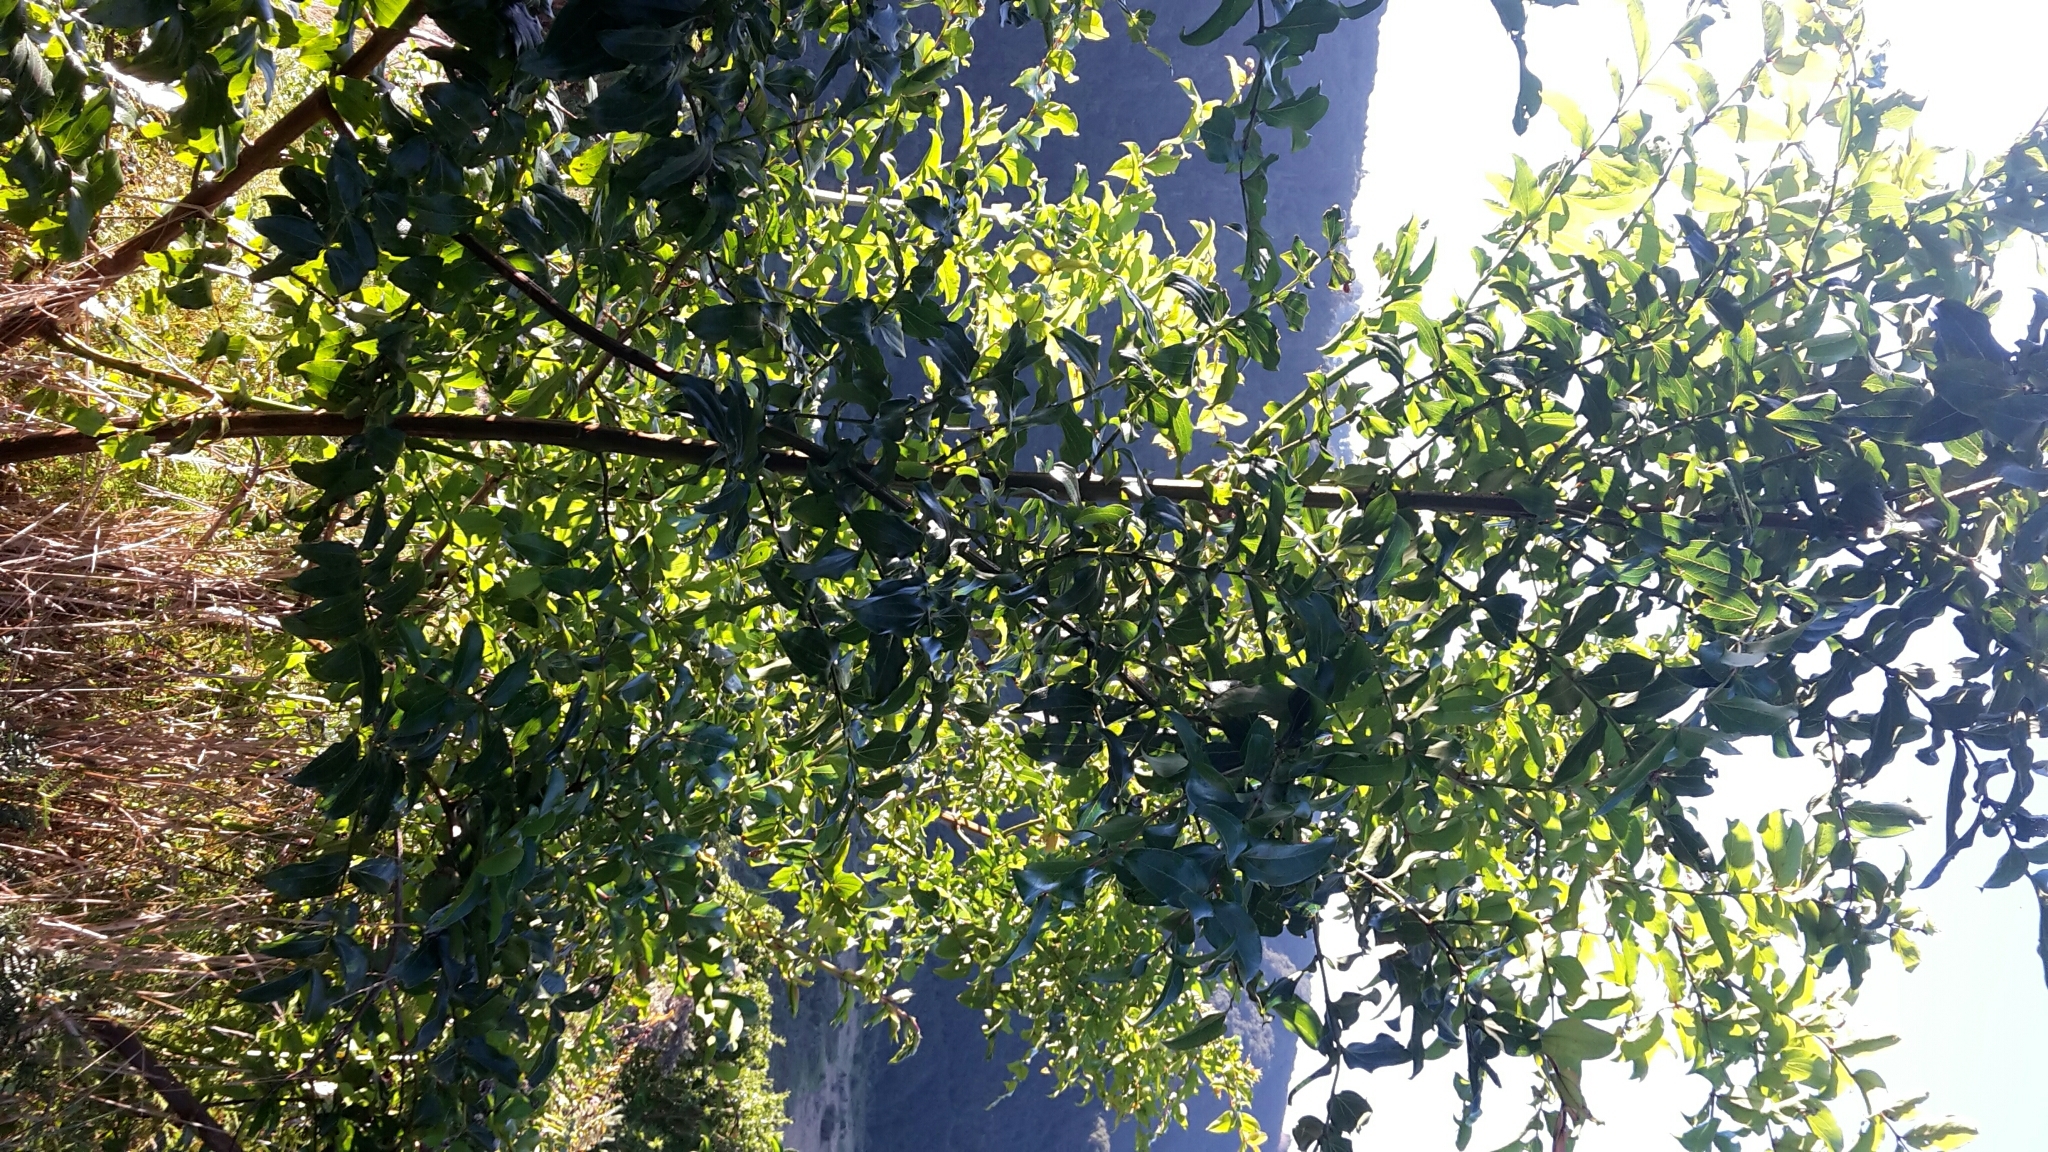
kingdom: Plantae
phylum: Tracheophyta
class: Magnoliopsida
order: Cucurbitales
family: Coriariaceae
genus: Coriaria
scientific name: Coriaria arborea
